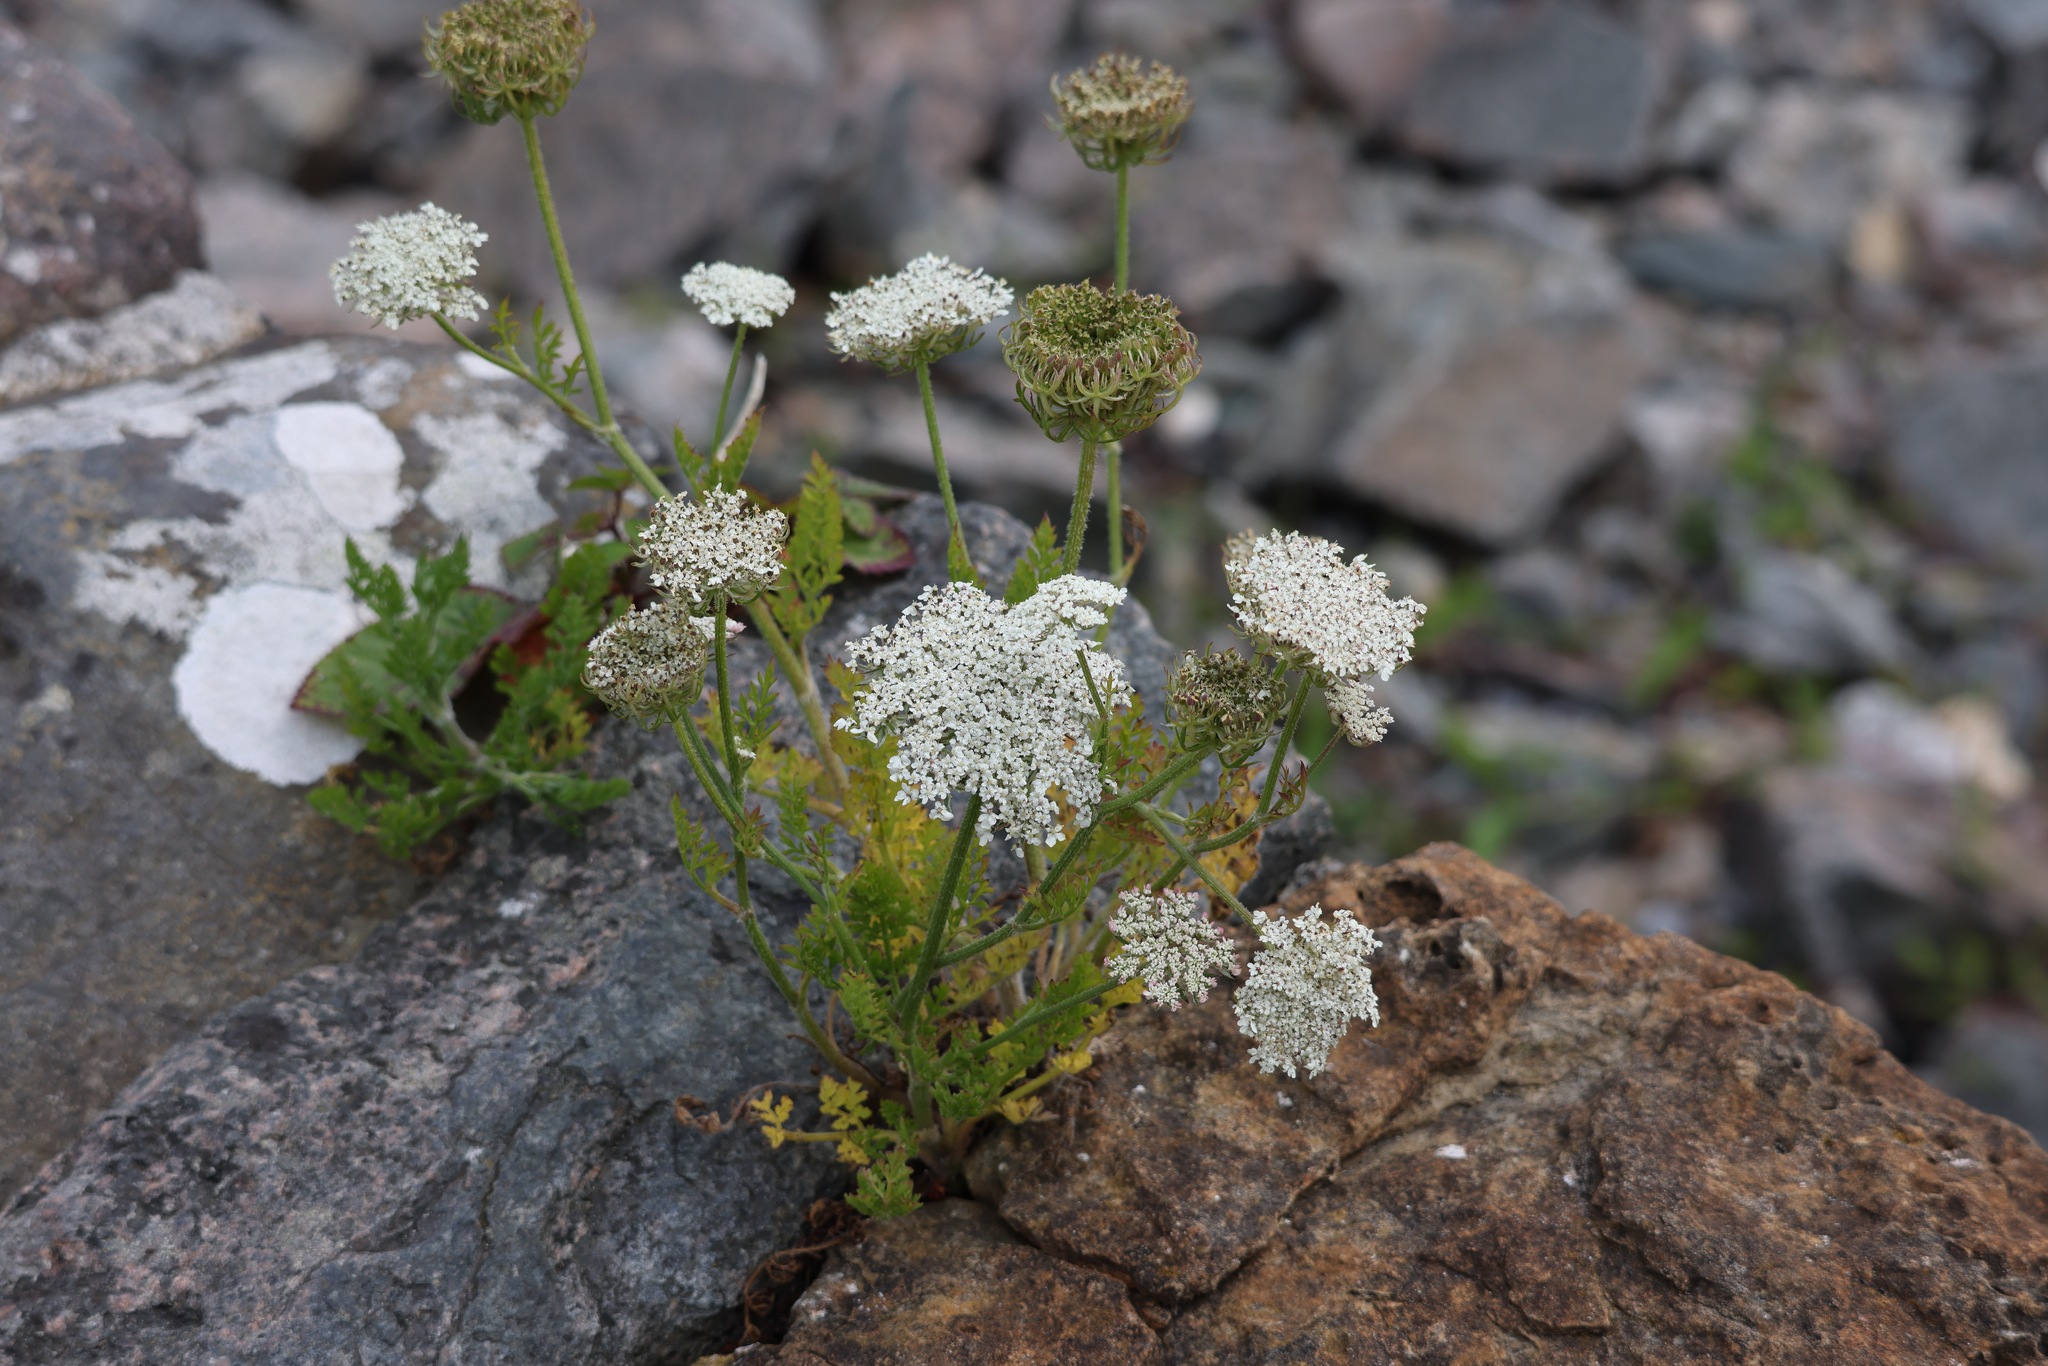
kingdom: Plantae
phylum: Tracheophyta
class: Magnoliopsida
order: Apiales
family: Apiaceae
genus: Daucus
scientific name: Daucus carota
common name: Wild carrot
